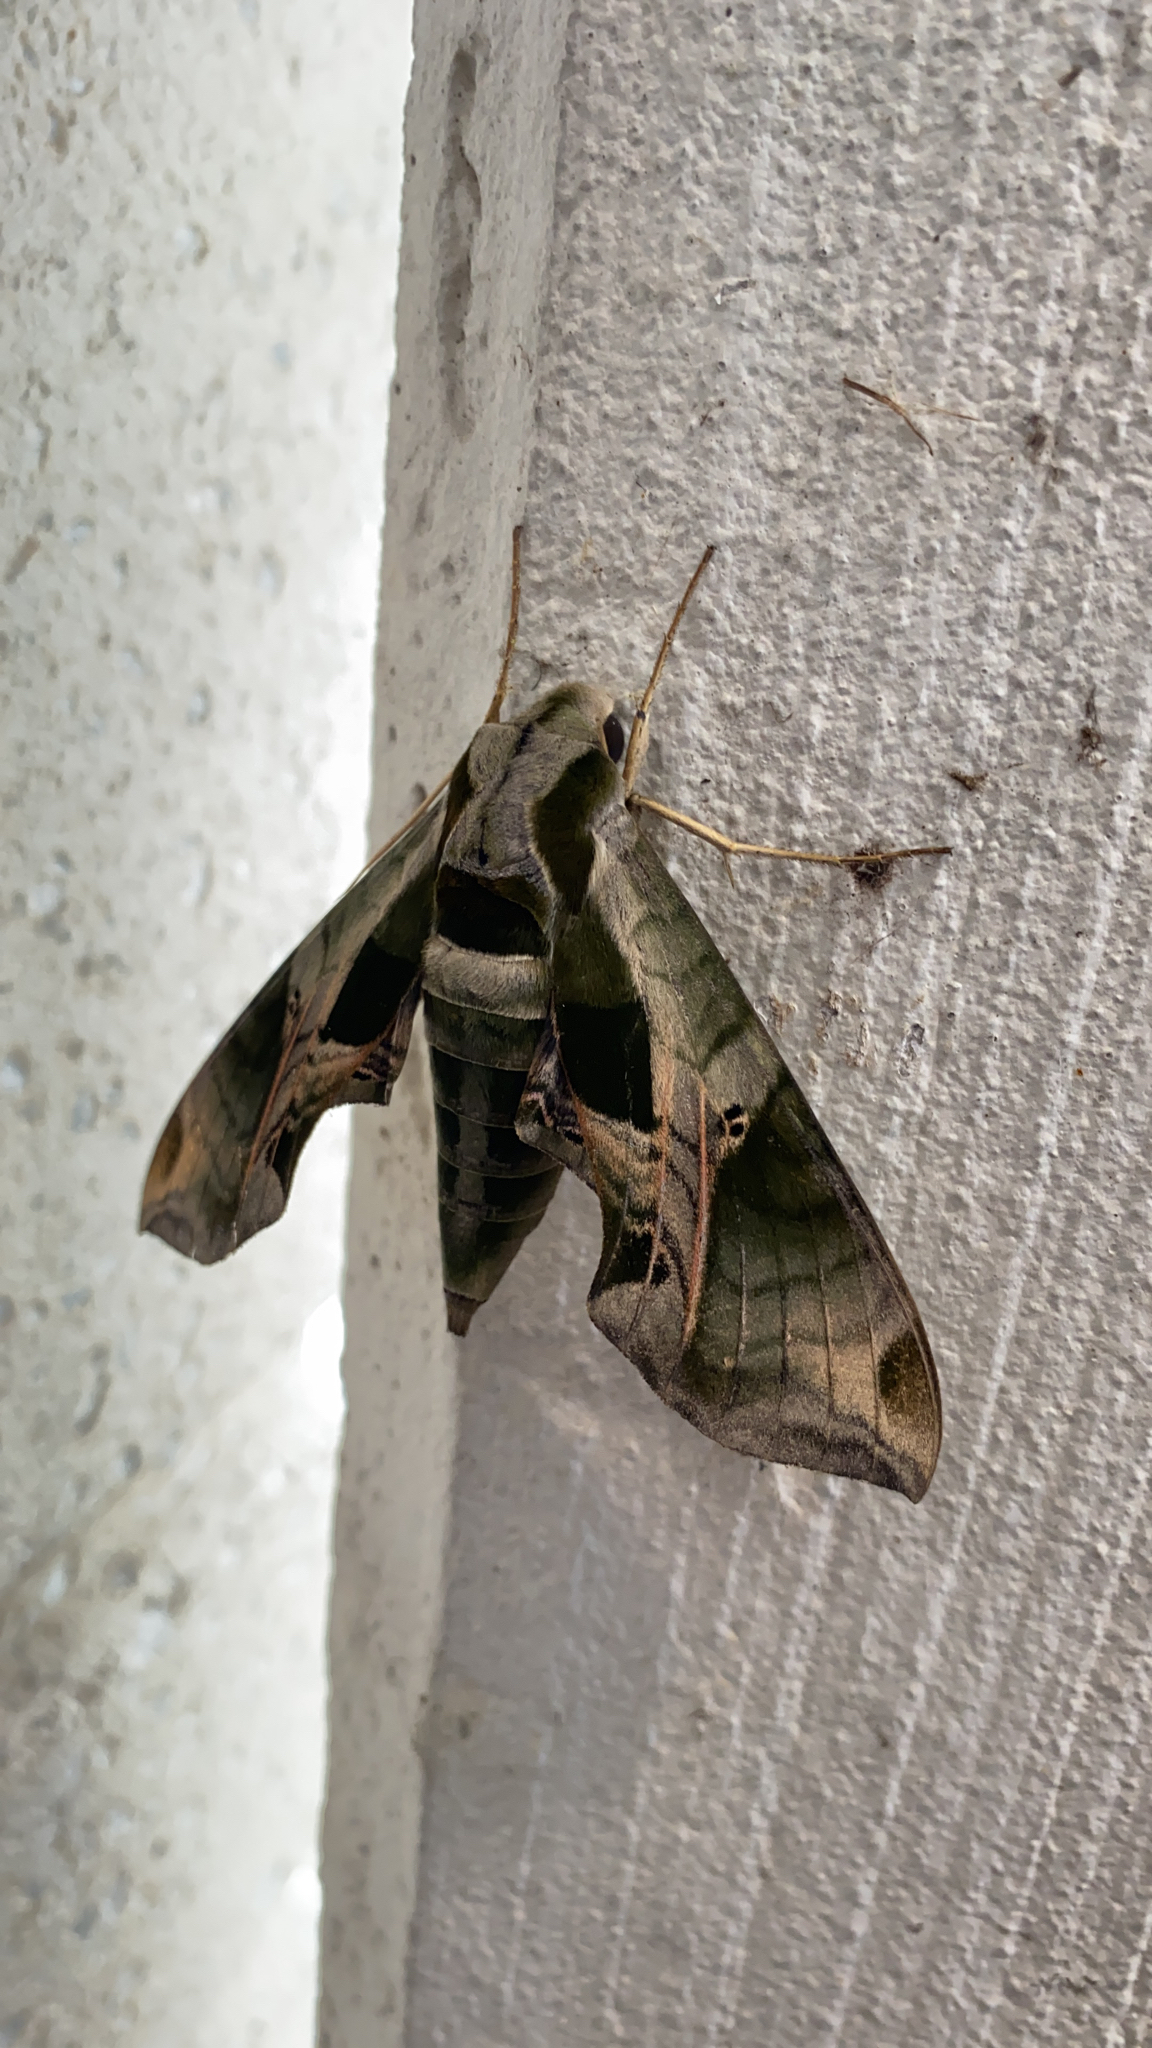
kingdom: Animalia
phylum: Arthropoda
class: Insecta
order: Lepidoptera
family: Sphingidae
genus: Eumorpha
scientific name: Eumorpha pandorus
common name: Pandora sphinx
